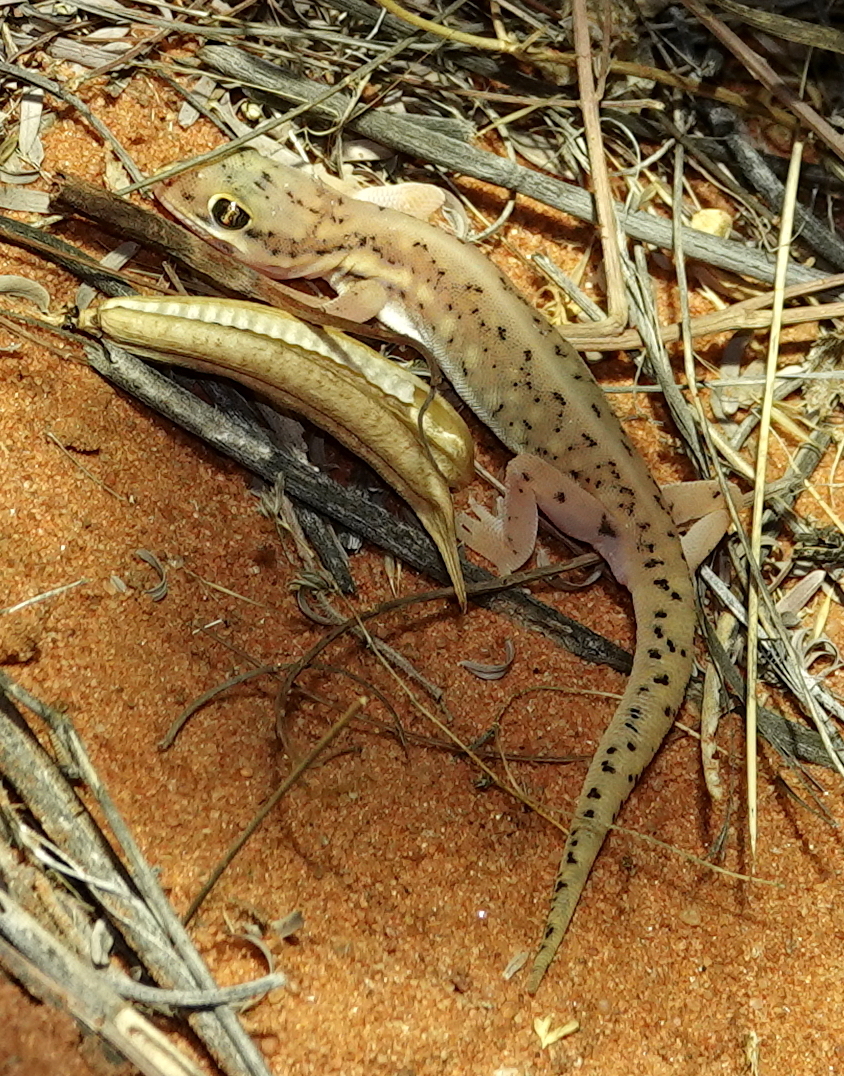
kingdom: Animalia
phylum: Chordata
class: Squamata
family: Gekkonidae
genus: Pachydactylus
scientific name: Pachydactylus wahlbergii
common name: Kalahari ground gecko
